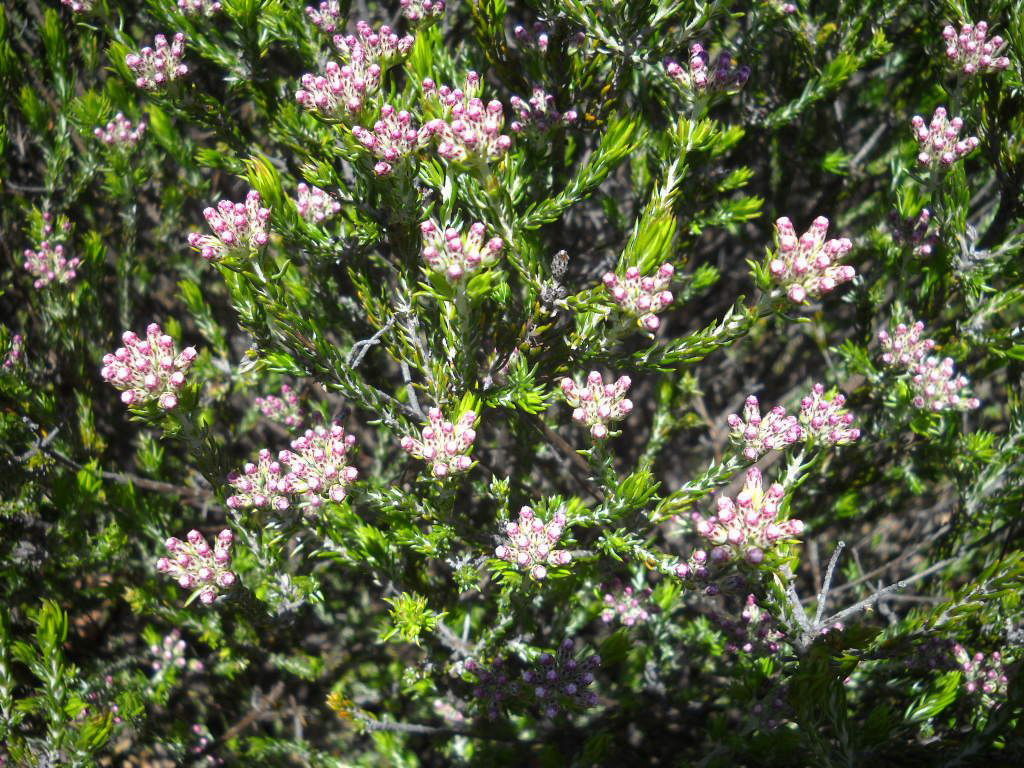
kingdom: Plantae
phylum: Tracheophyta
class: Magnoliopsida
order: Asterales
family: Asteraceae
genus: Metalasia
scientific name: Metalasia tricolor
